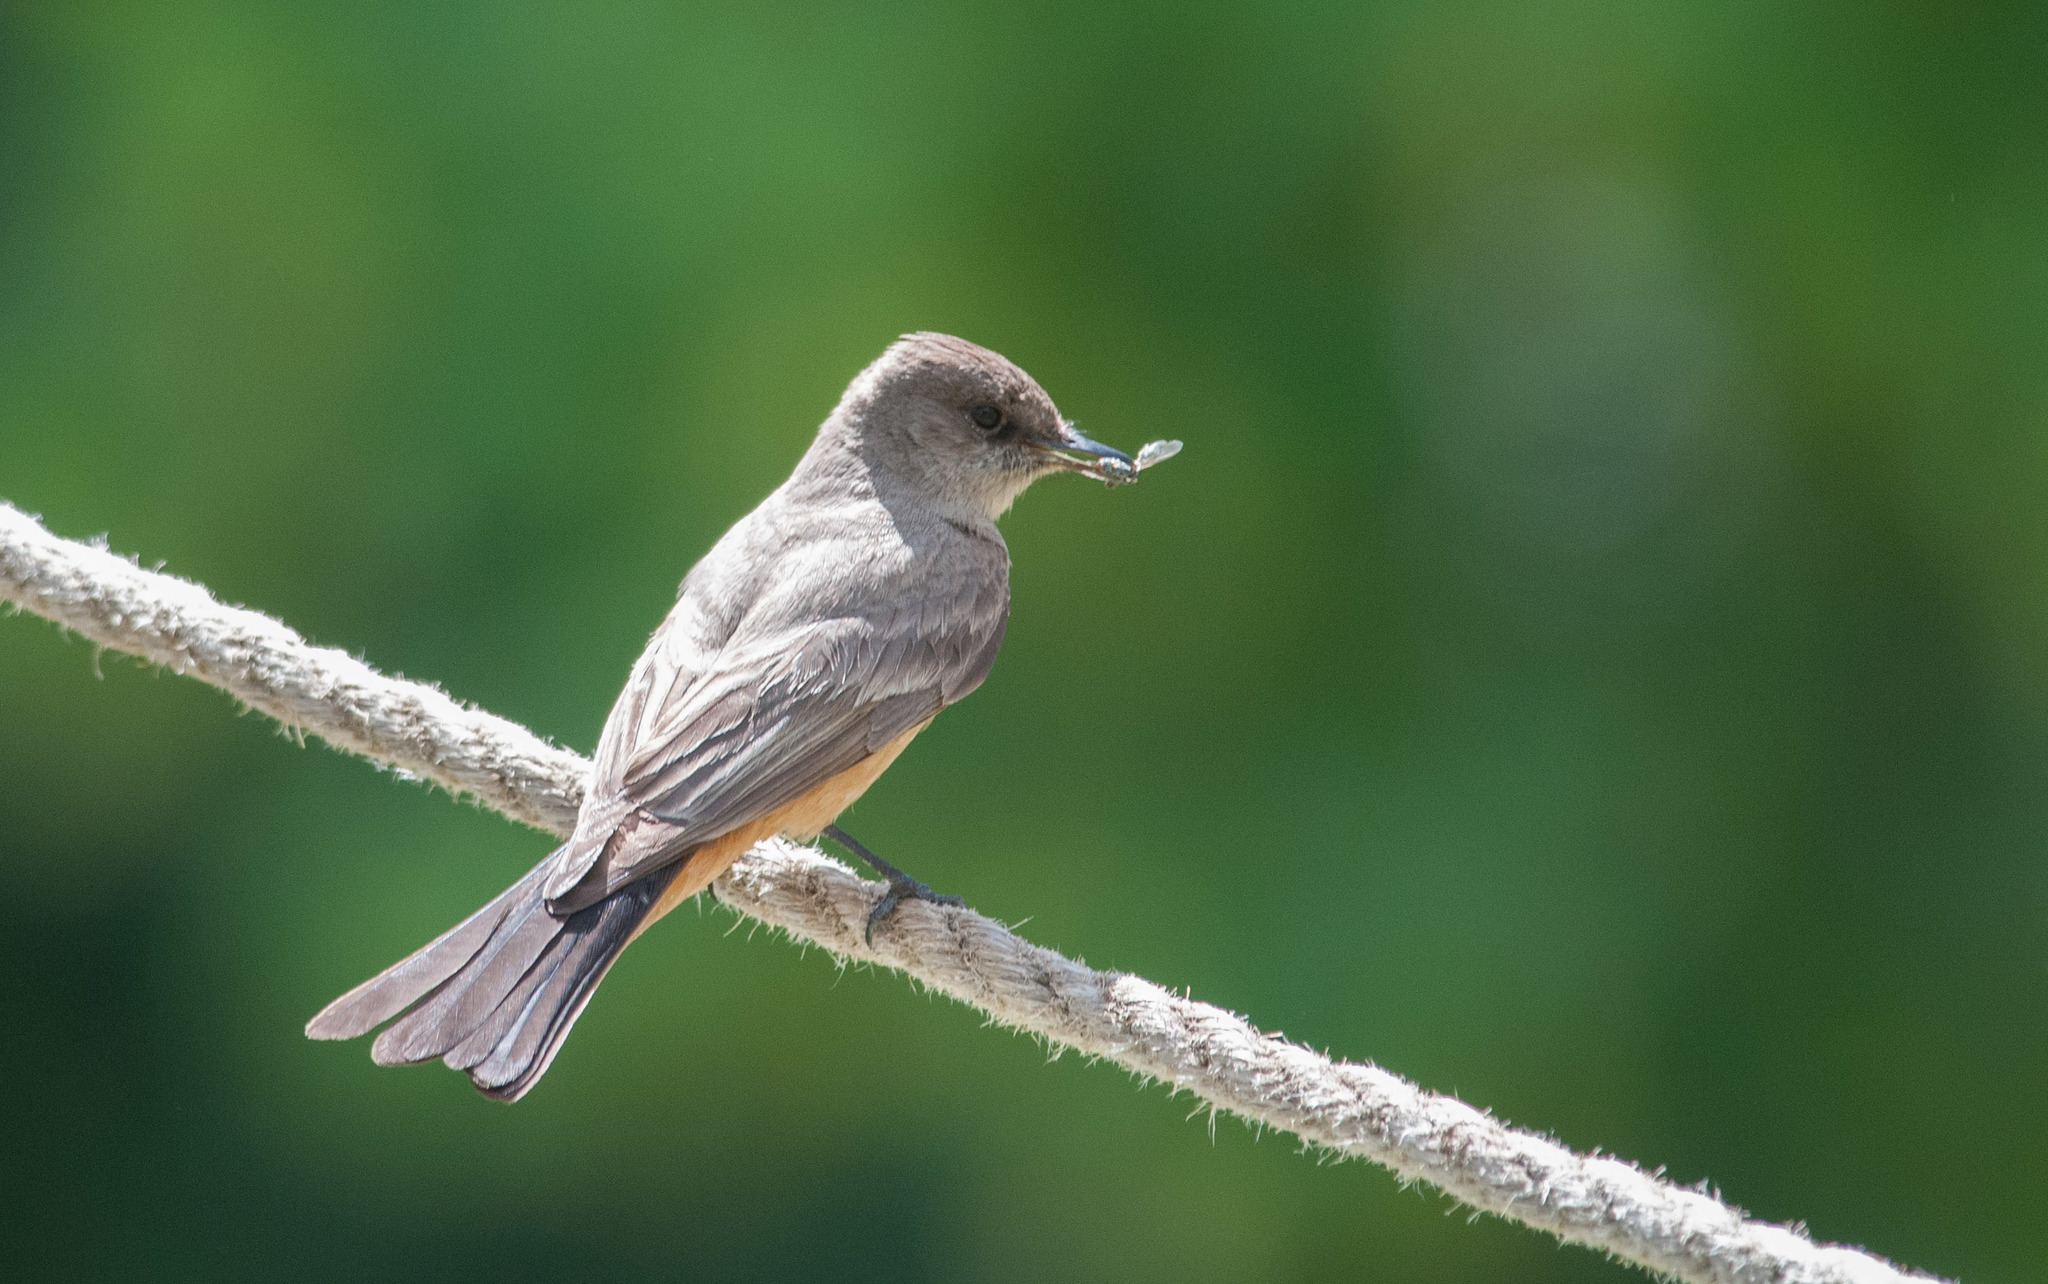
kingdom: Animalia
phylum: Chordata
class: Aves
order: Passeriformes
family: Tyrannidae
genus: Sayornis
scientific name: Sayornis saya
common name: Say's phoebe
